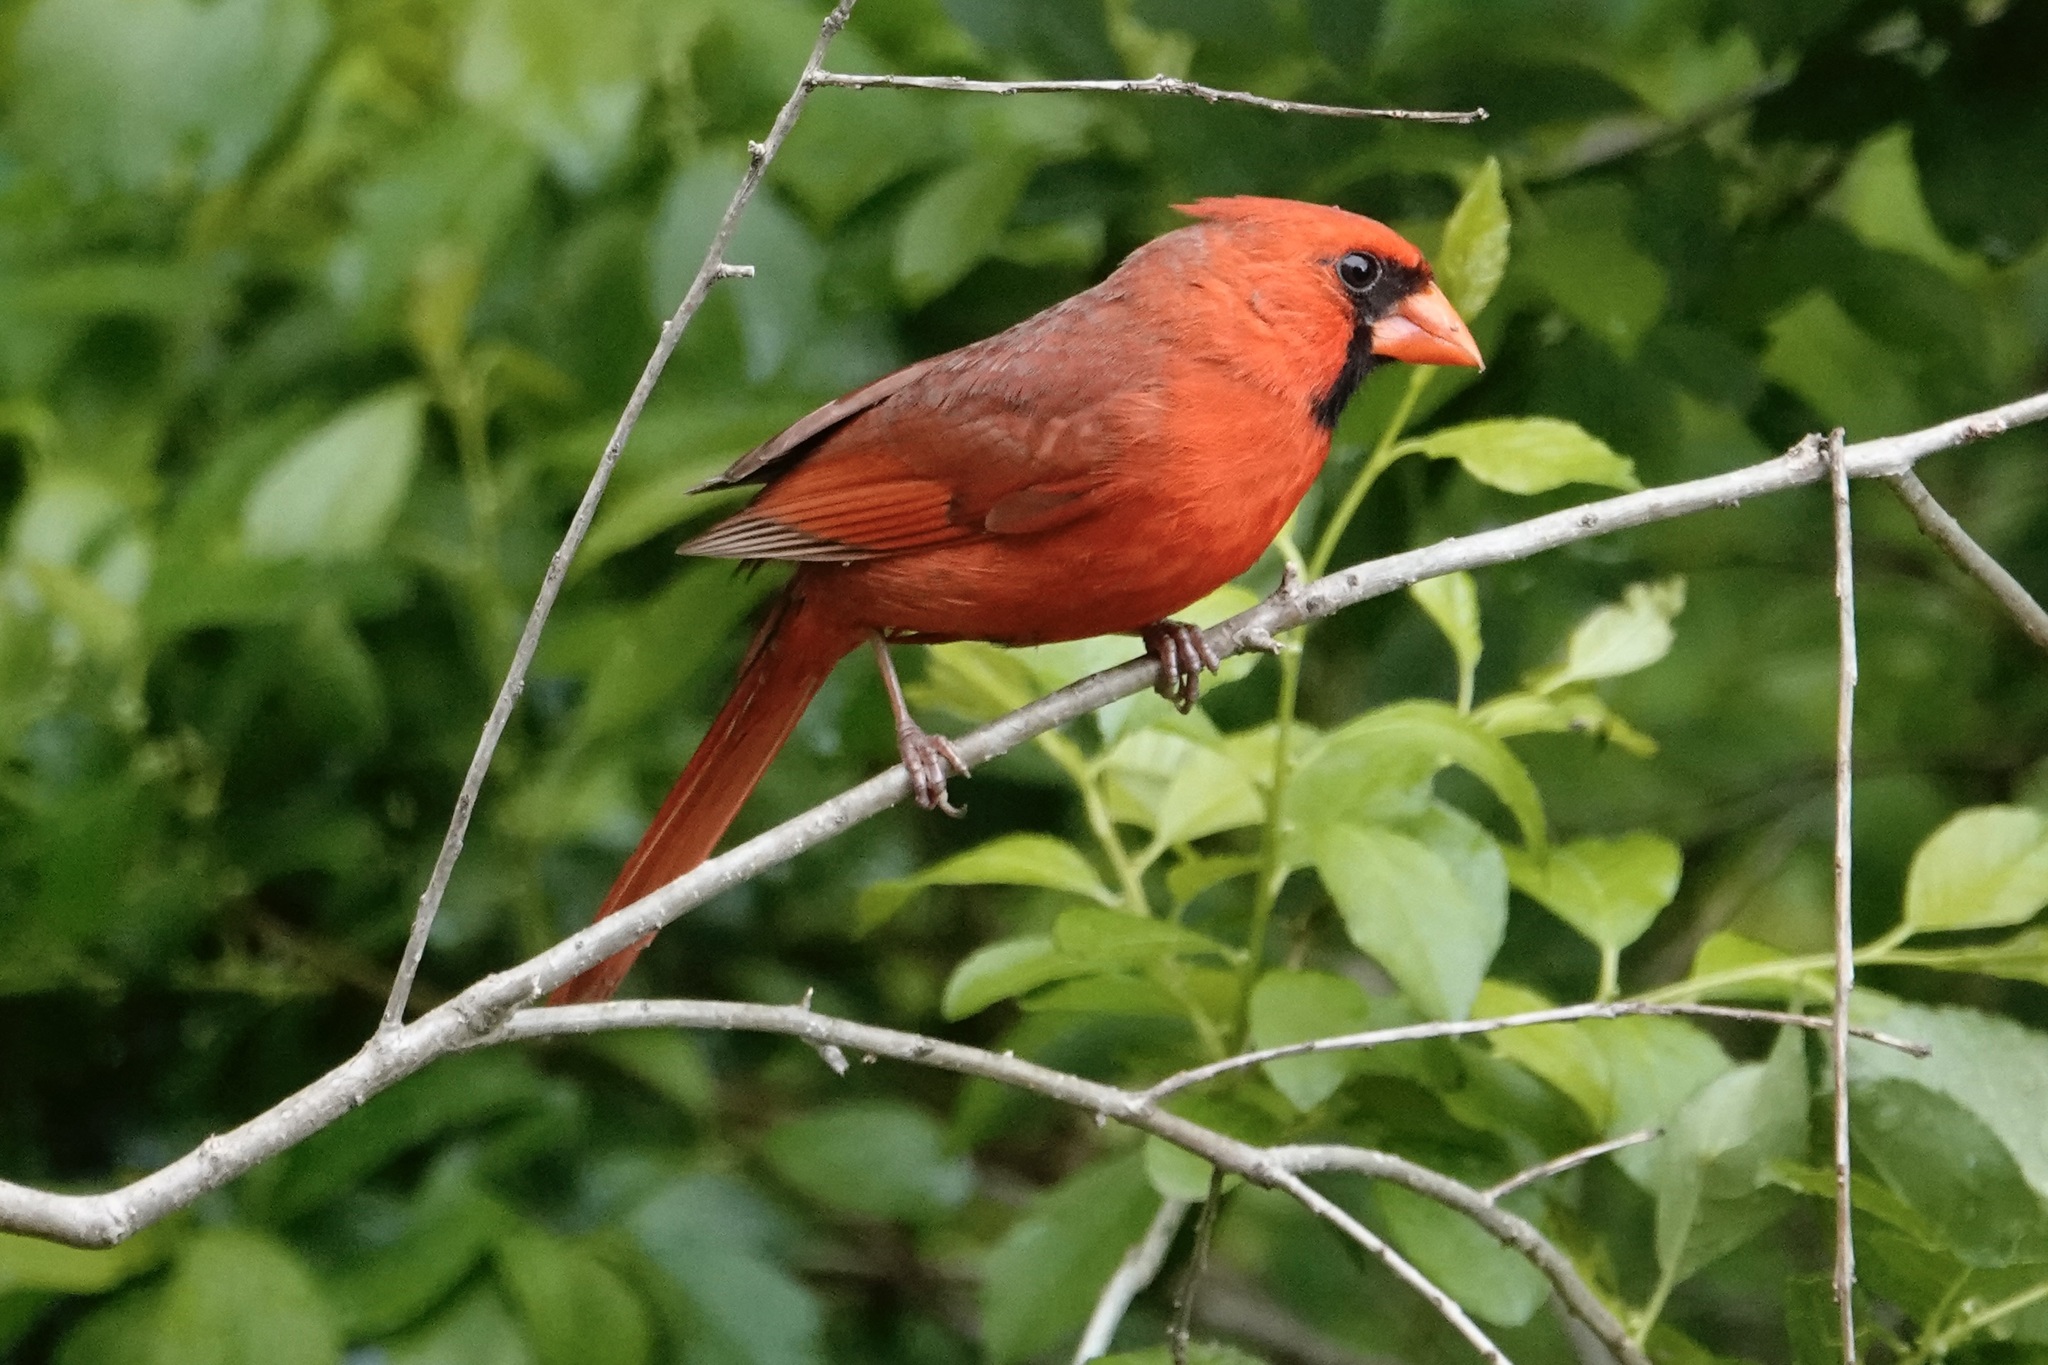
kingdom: Animalia
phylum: Chordata
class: Aves
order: Passeriformes
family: Cardinalidae
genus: Cardinalis
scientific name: Cardinalis cardinalis
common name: Northern cardinal
